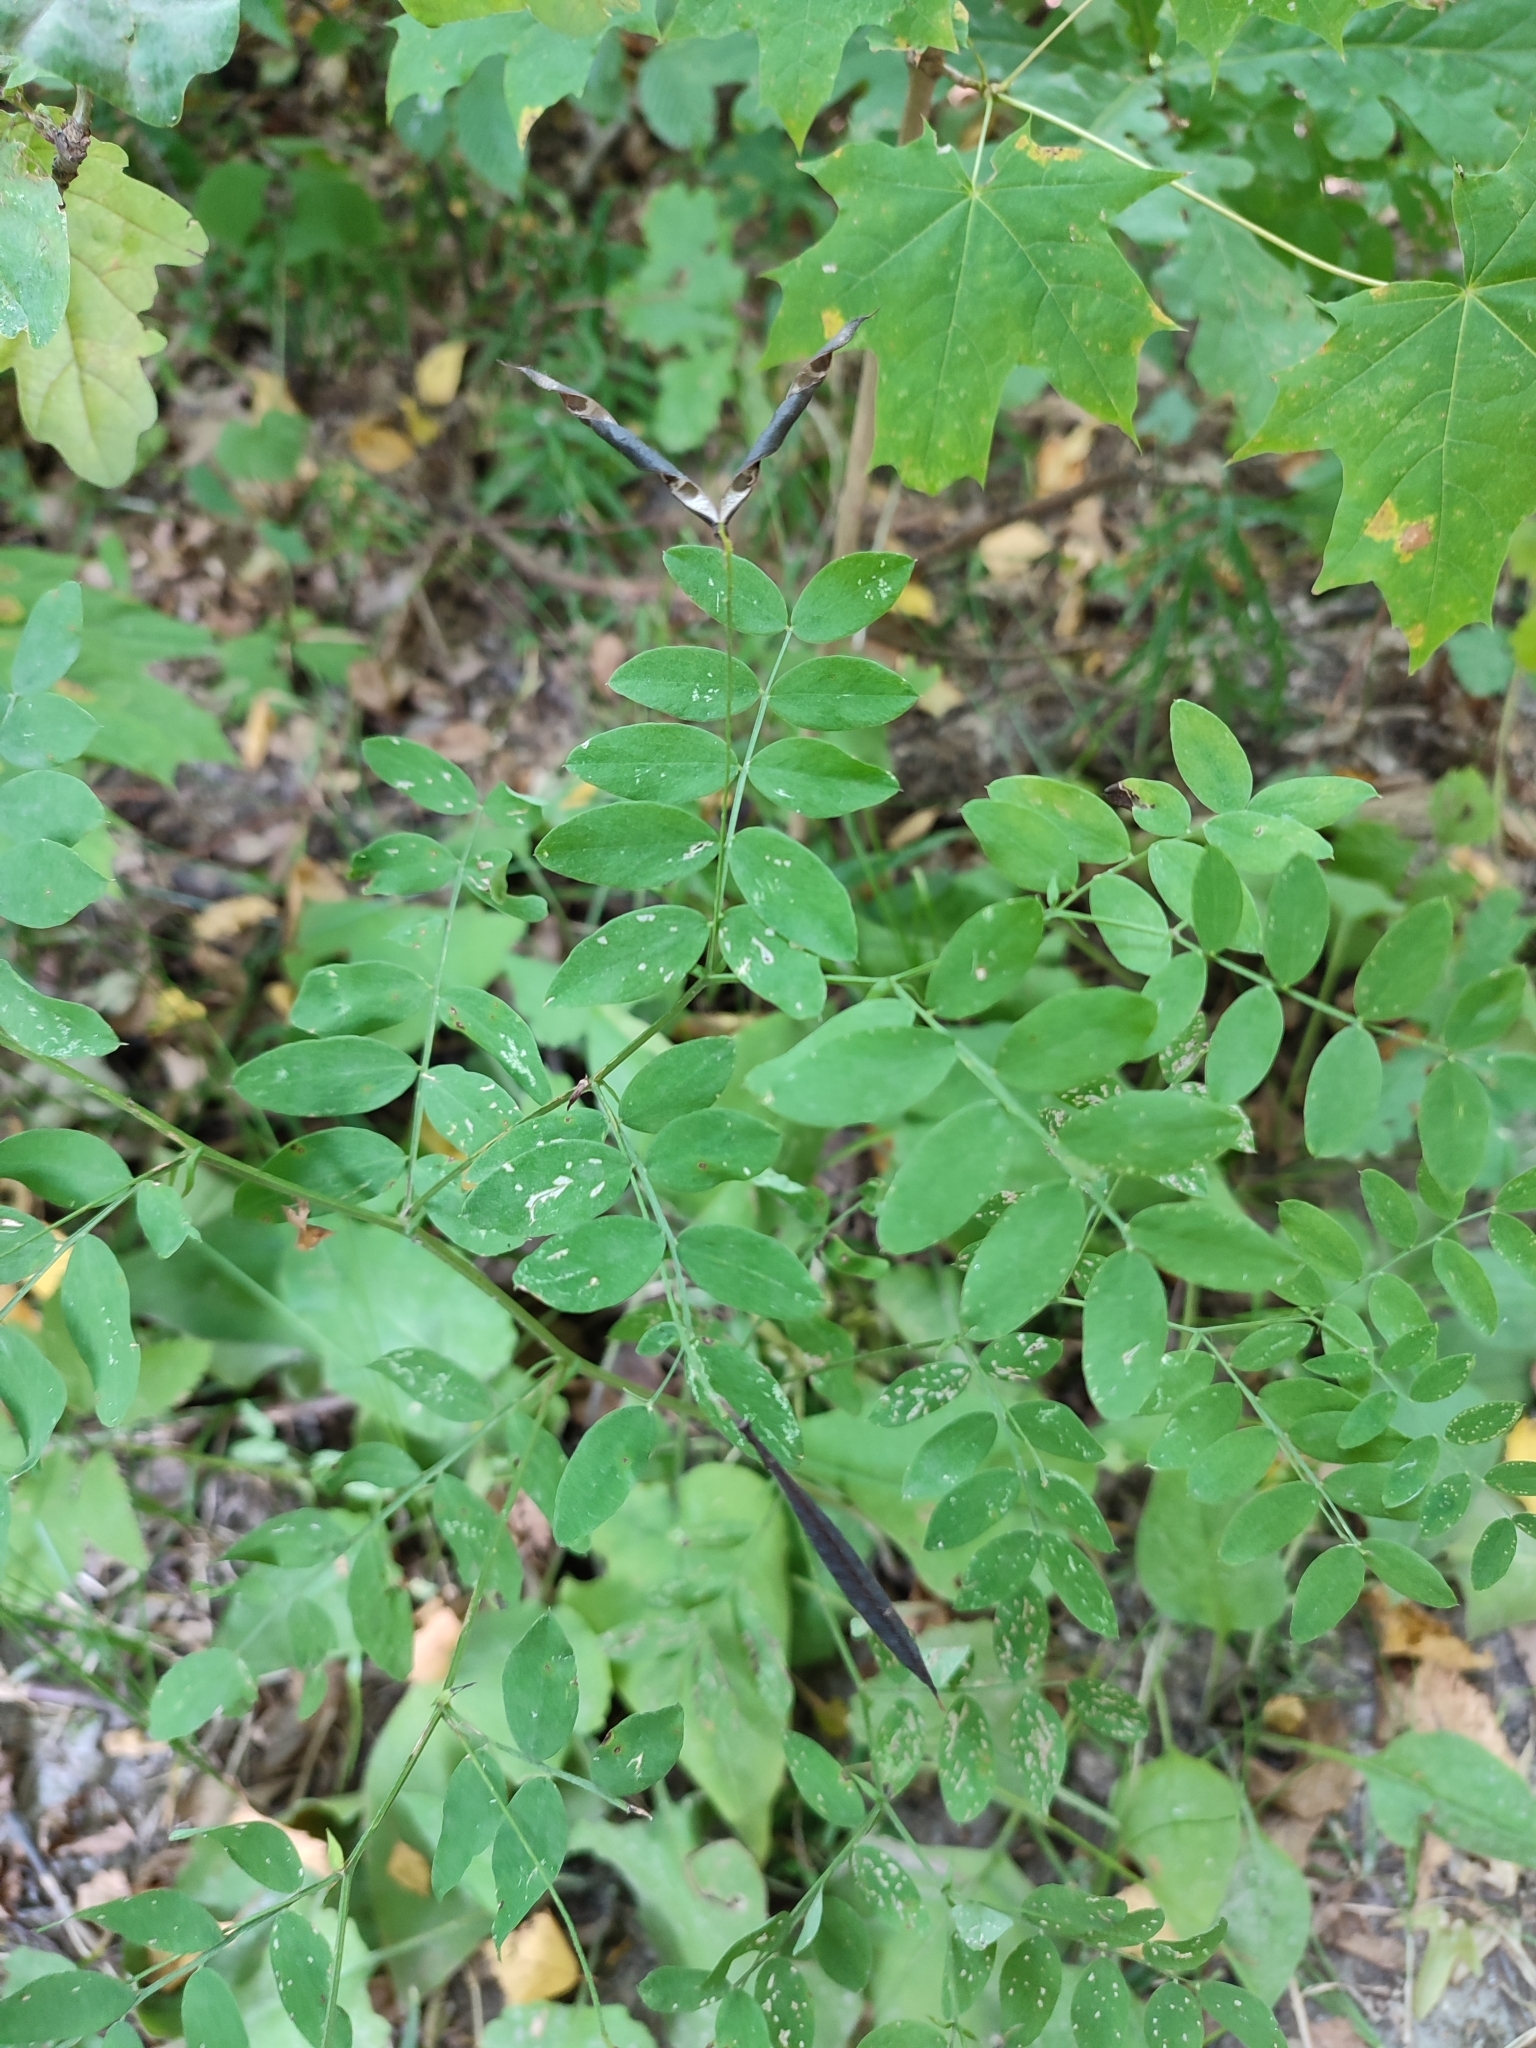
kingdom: Plantae
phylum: Tracheophyta
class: Magnoliopsida
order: Fabales
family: Fabaceae
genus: Lathyrus
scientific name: Lathyrus niger
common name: Black pea
